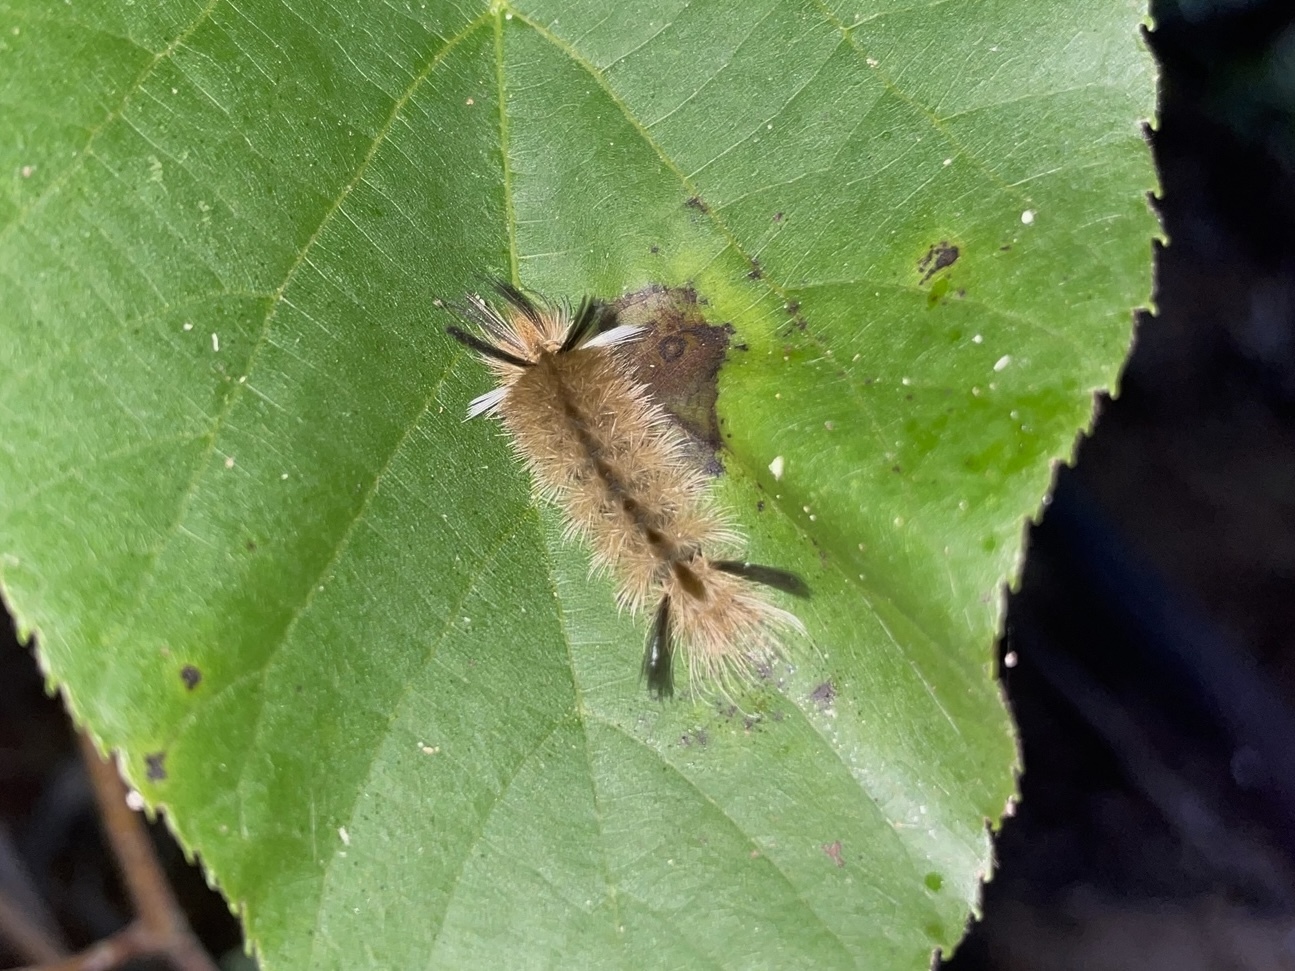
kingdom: Animalia
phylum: Arthropoda
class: Insecta
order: Lepidoptera
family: Erebidae
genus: Halysidota
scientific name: Halysidota tessellaris
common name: Banded tussock moth
